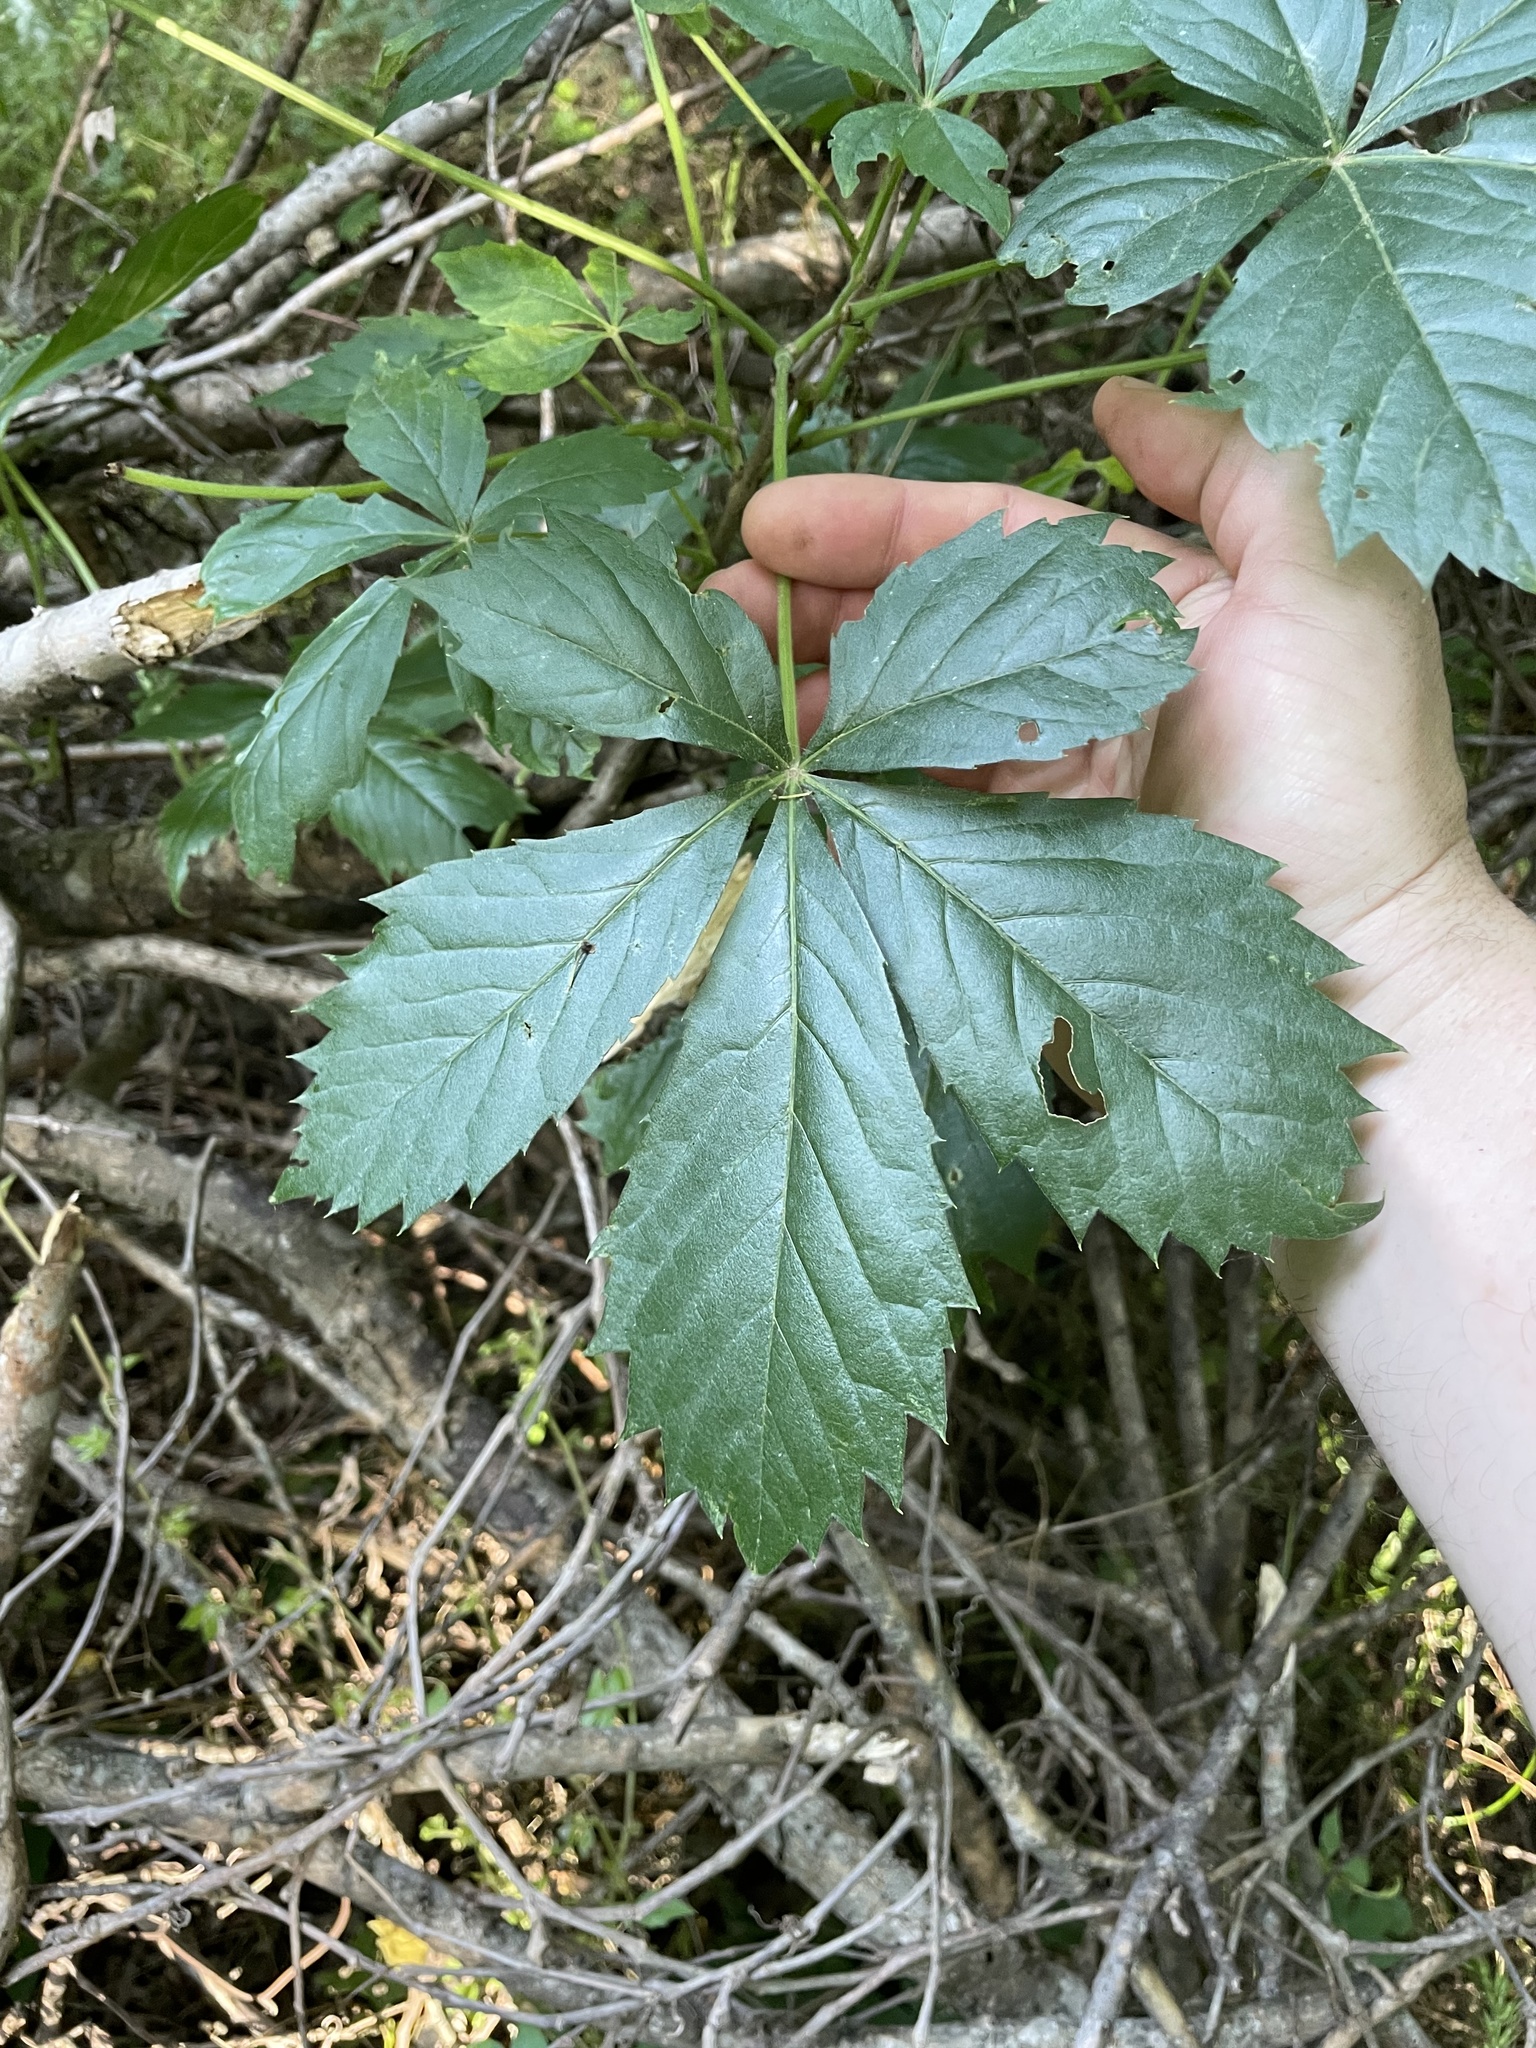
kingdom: Plantae
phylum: Tracheophyta
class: Magnoliopsida
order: Vitales
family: Vitaceae
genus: Parthenocissus
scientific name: Parthenocissus quinquefolia
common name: Virginia-creeper
